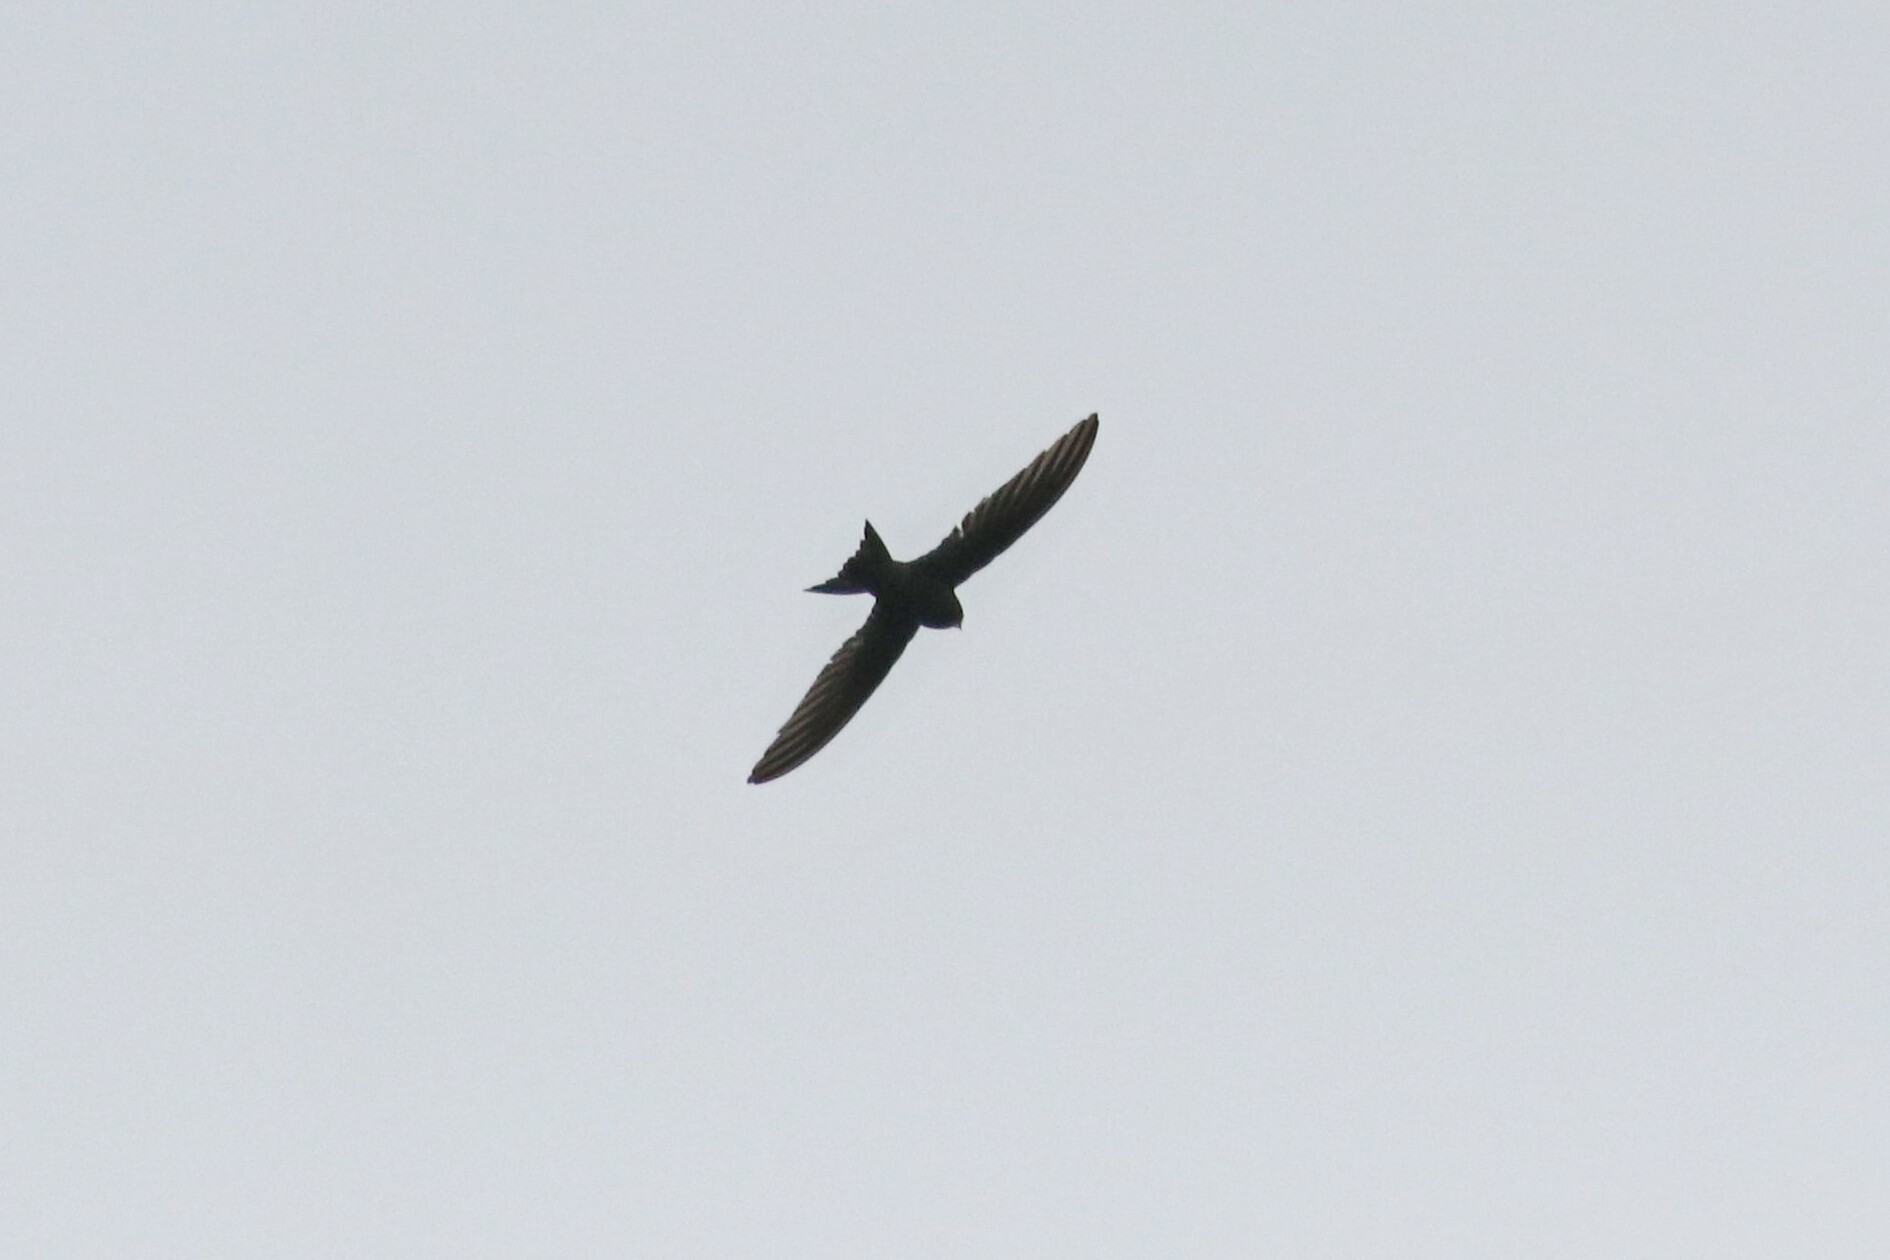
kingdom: Animalia
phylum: Chordata
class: Aves
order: Apodiformes
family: Apodidae
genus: Apus
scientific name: Apus apus
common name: Common swift
